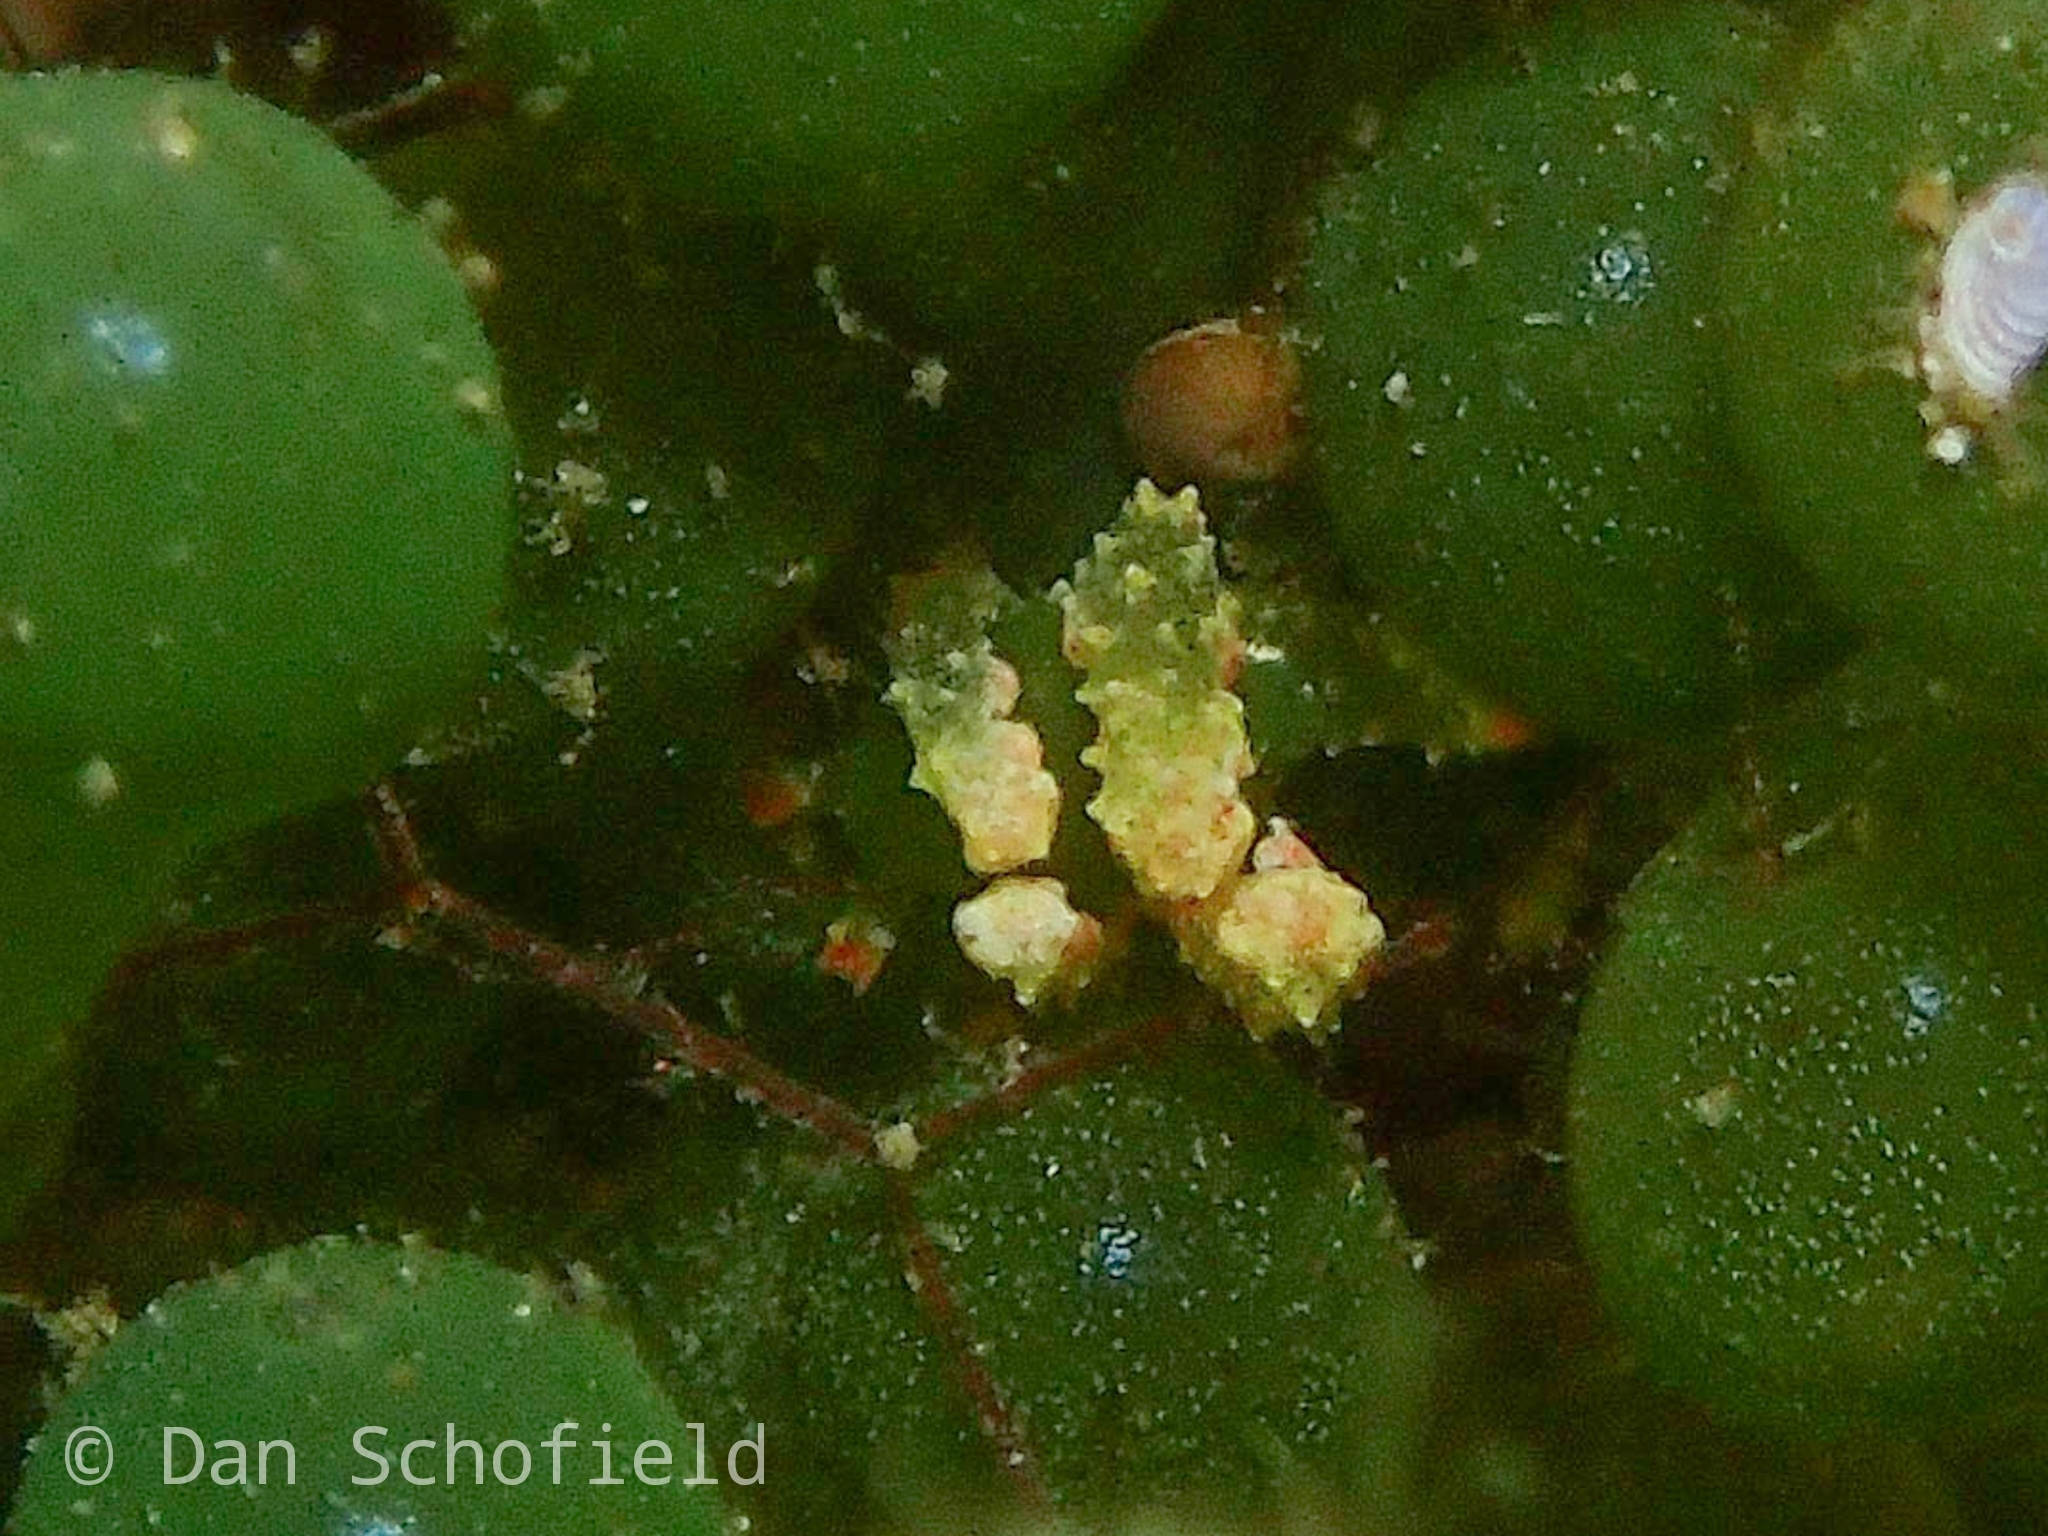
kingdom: Animalia
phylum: Mollusca
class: Gastropoda
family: Oxynoidae
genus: Lobiger
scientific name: Lobiger viridis
